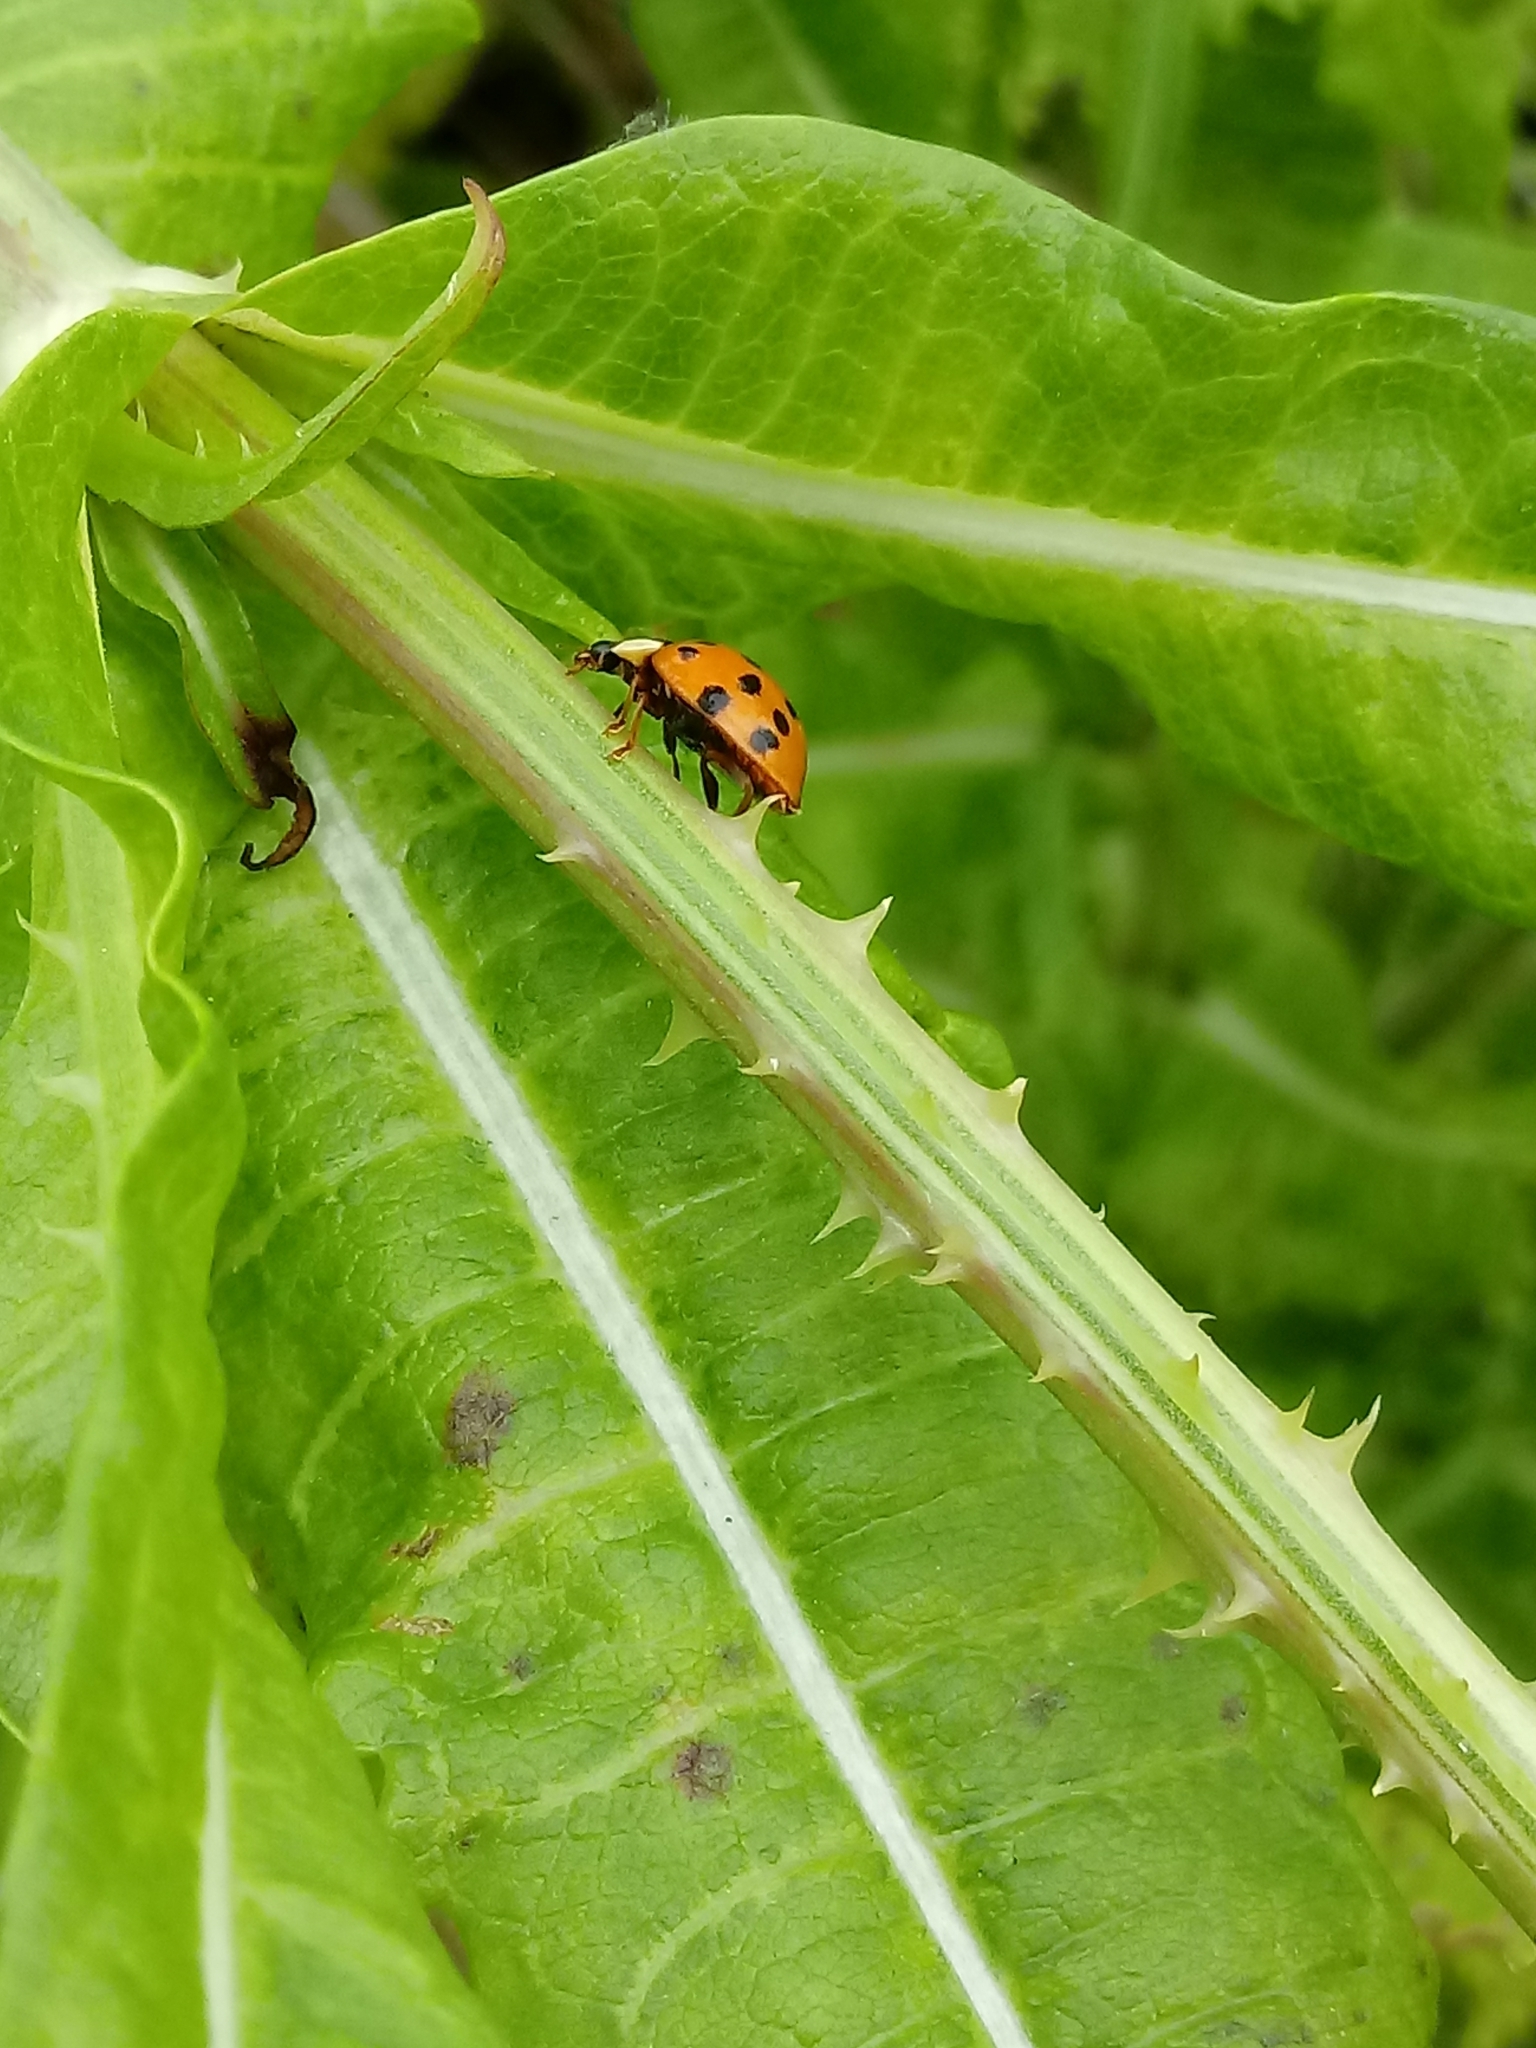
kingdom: Animalia
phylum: Arthropoda
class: Insecta
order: Coleoptera
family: Coccinellidae
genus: Harmonia
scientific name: Harmonia axyridis
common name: Harlequin ladybird
